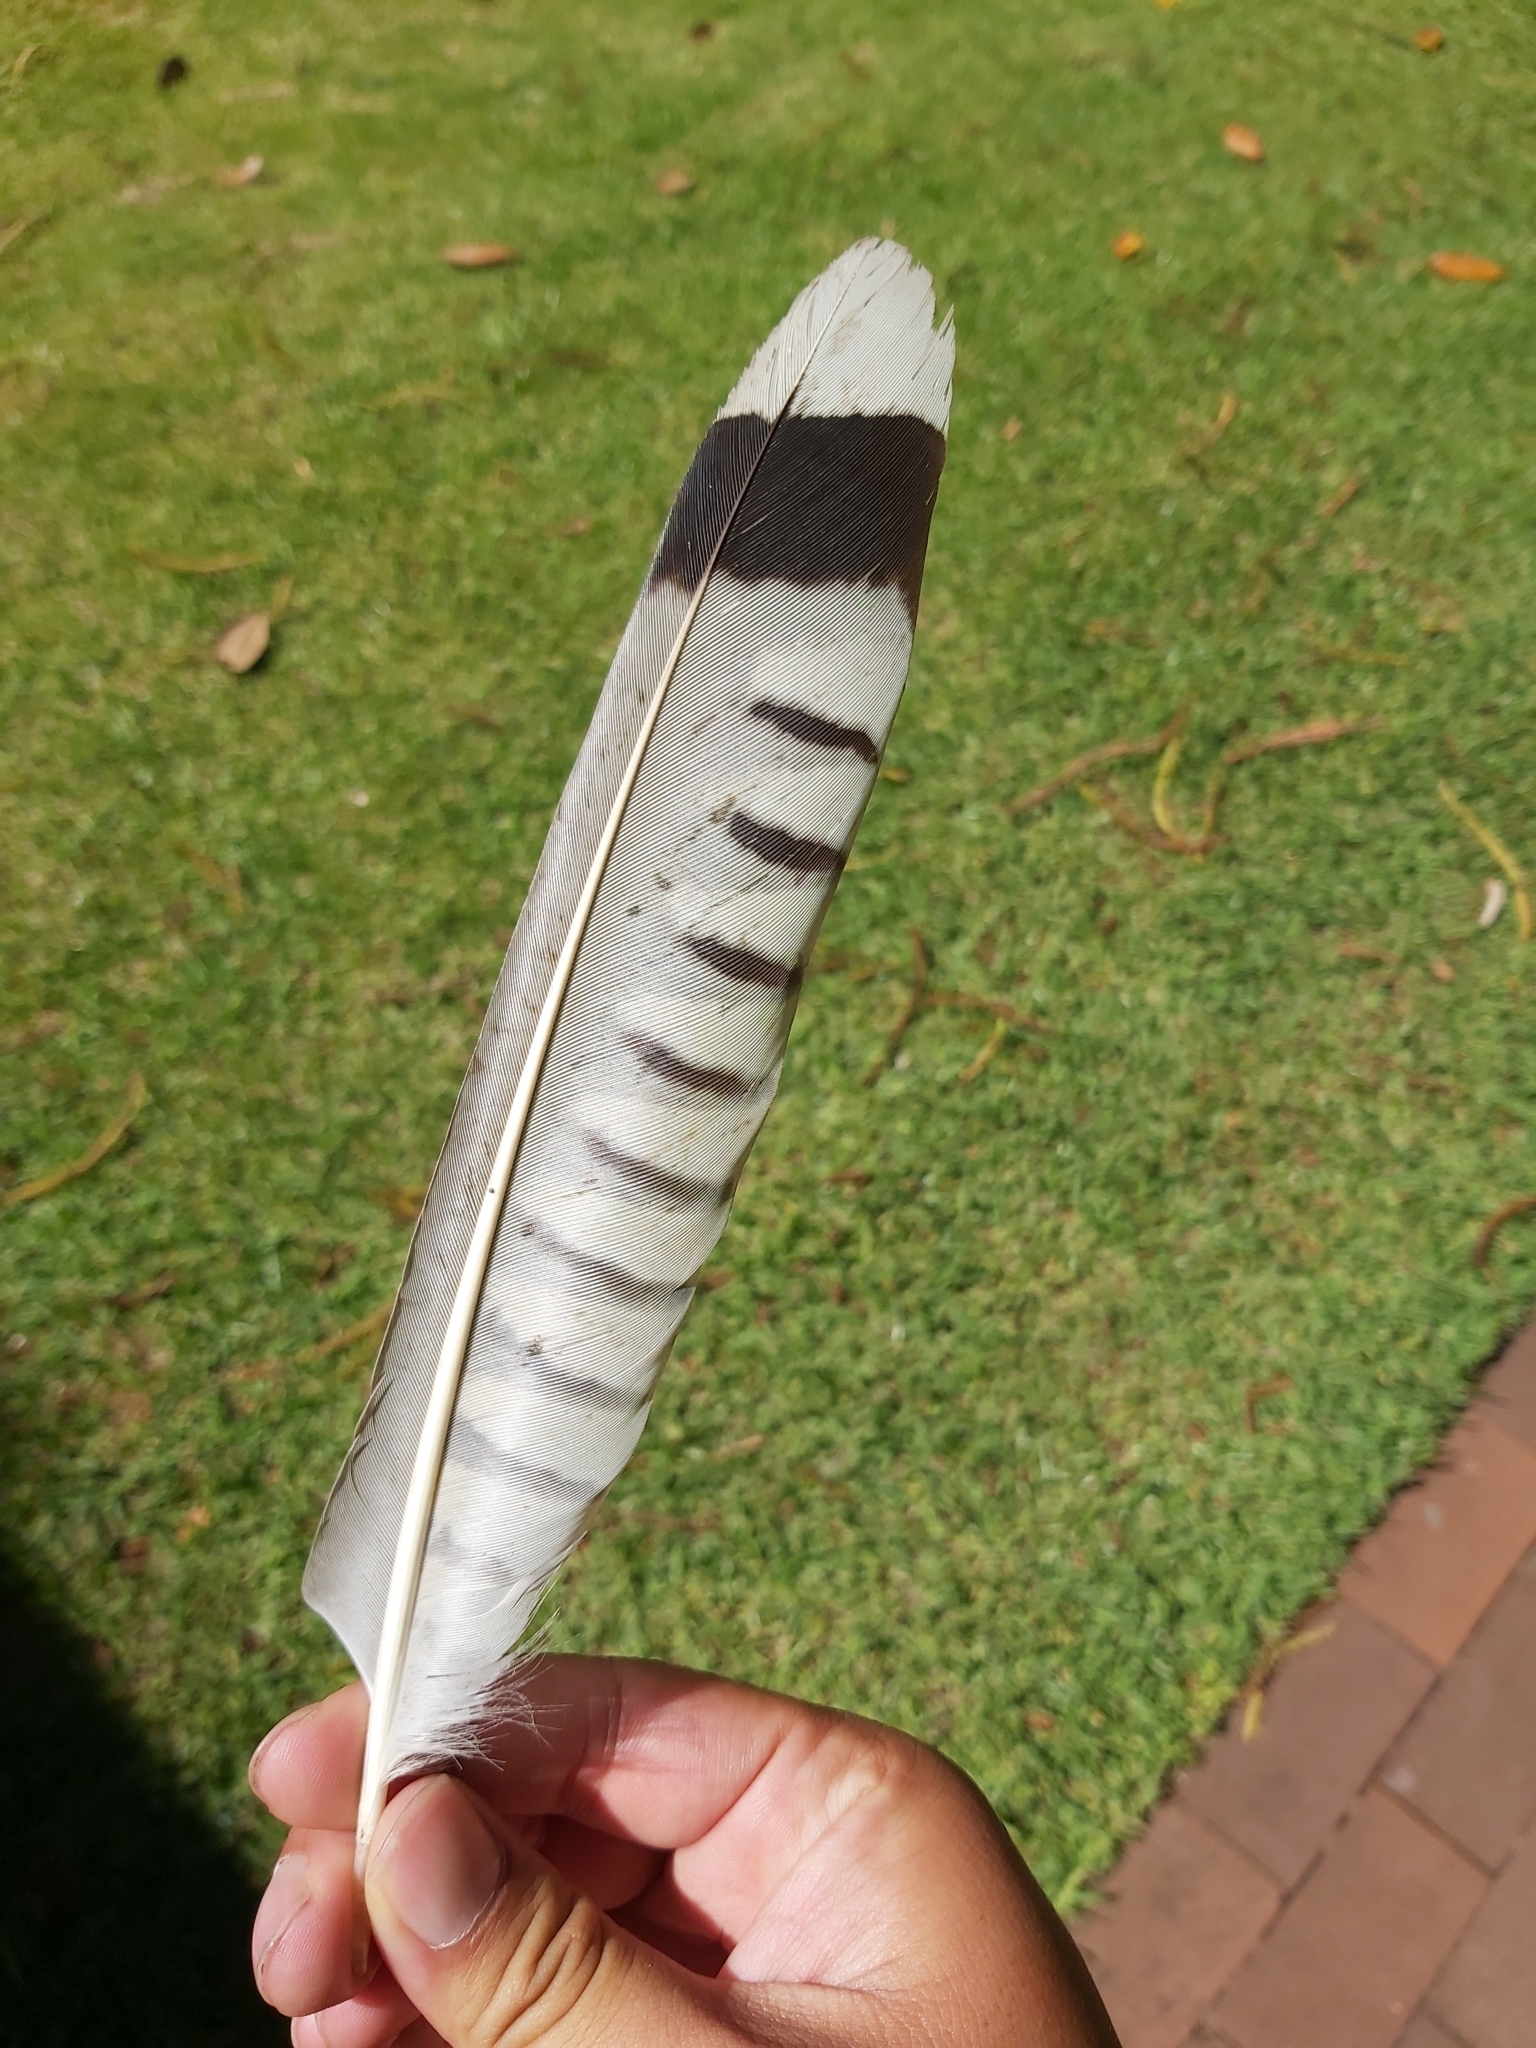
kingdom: Animalia
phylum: Chordata
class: Aves
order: Cuculiformes
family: Cuculidae
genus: Scythrops
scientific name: Scythrops novaehollandiae
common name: Channel-billed cuckoo
